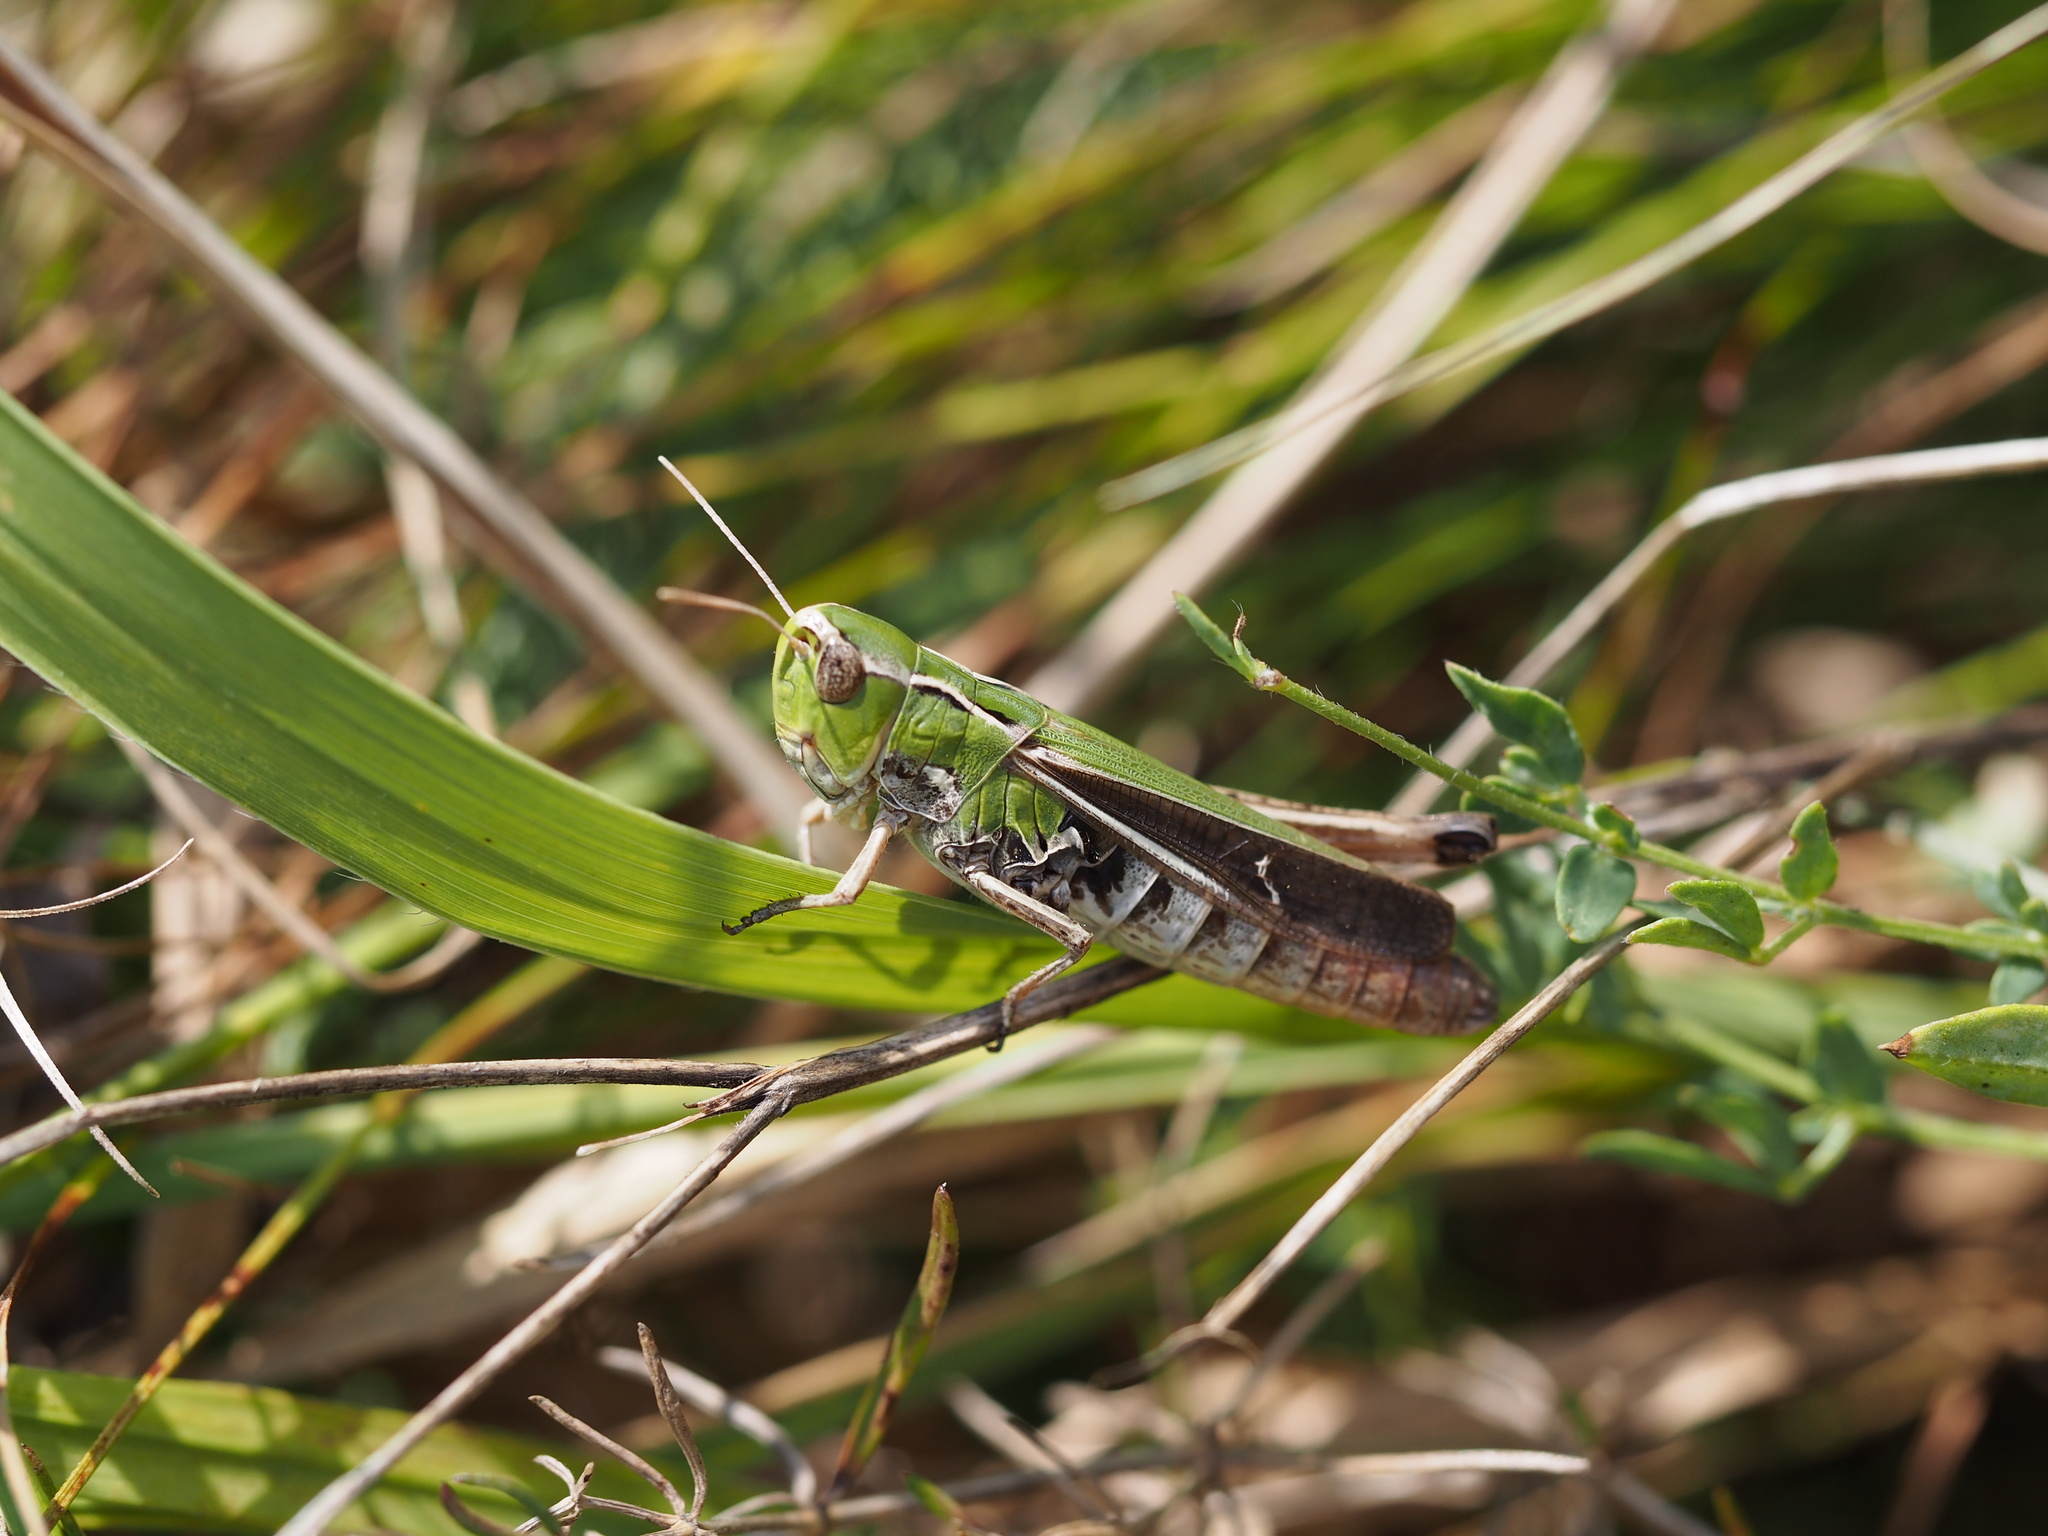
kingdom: Animalia
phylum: Arthropoda
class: Insecta
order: Orthoptera
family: Acrididae
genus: Stenobothrus
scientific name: Stenobothrus lineatus
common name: Stripe-winged grasshopper
